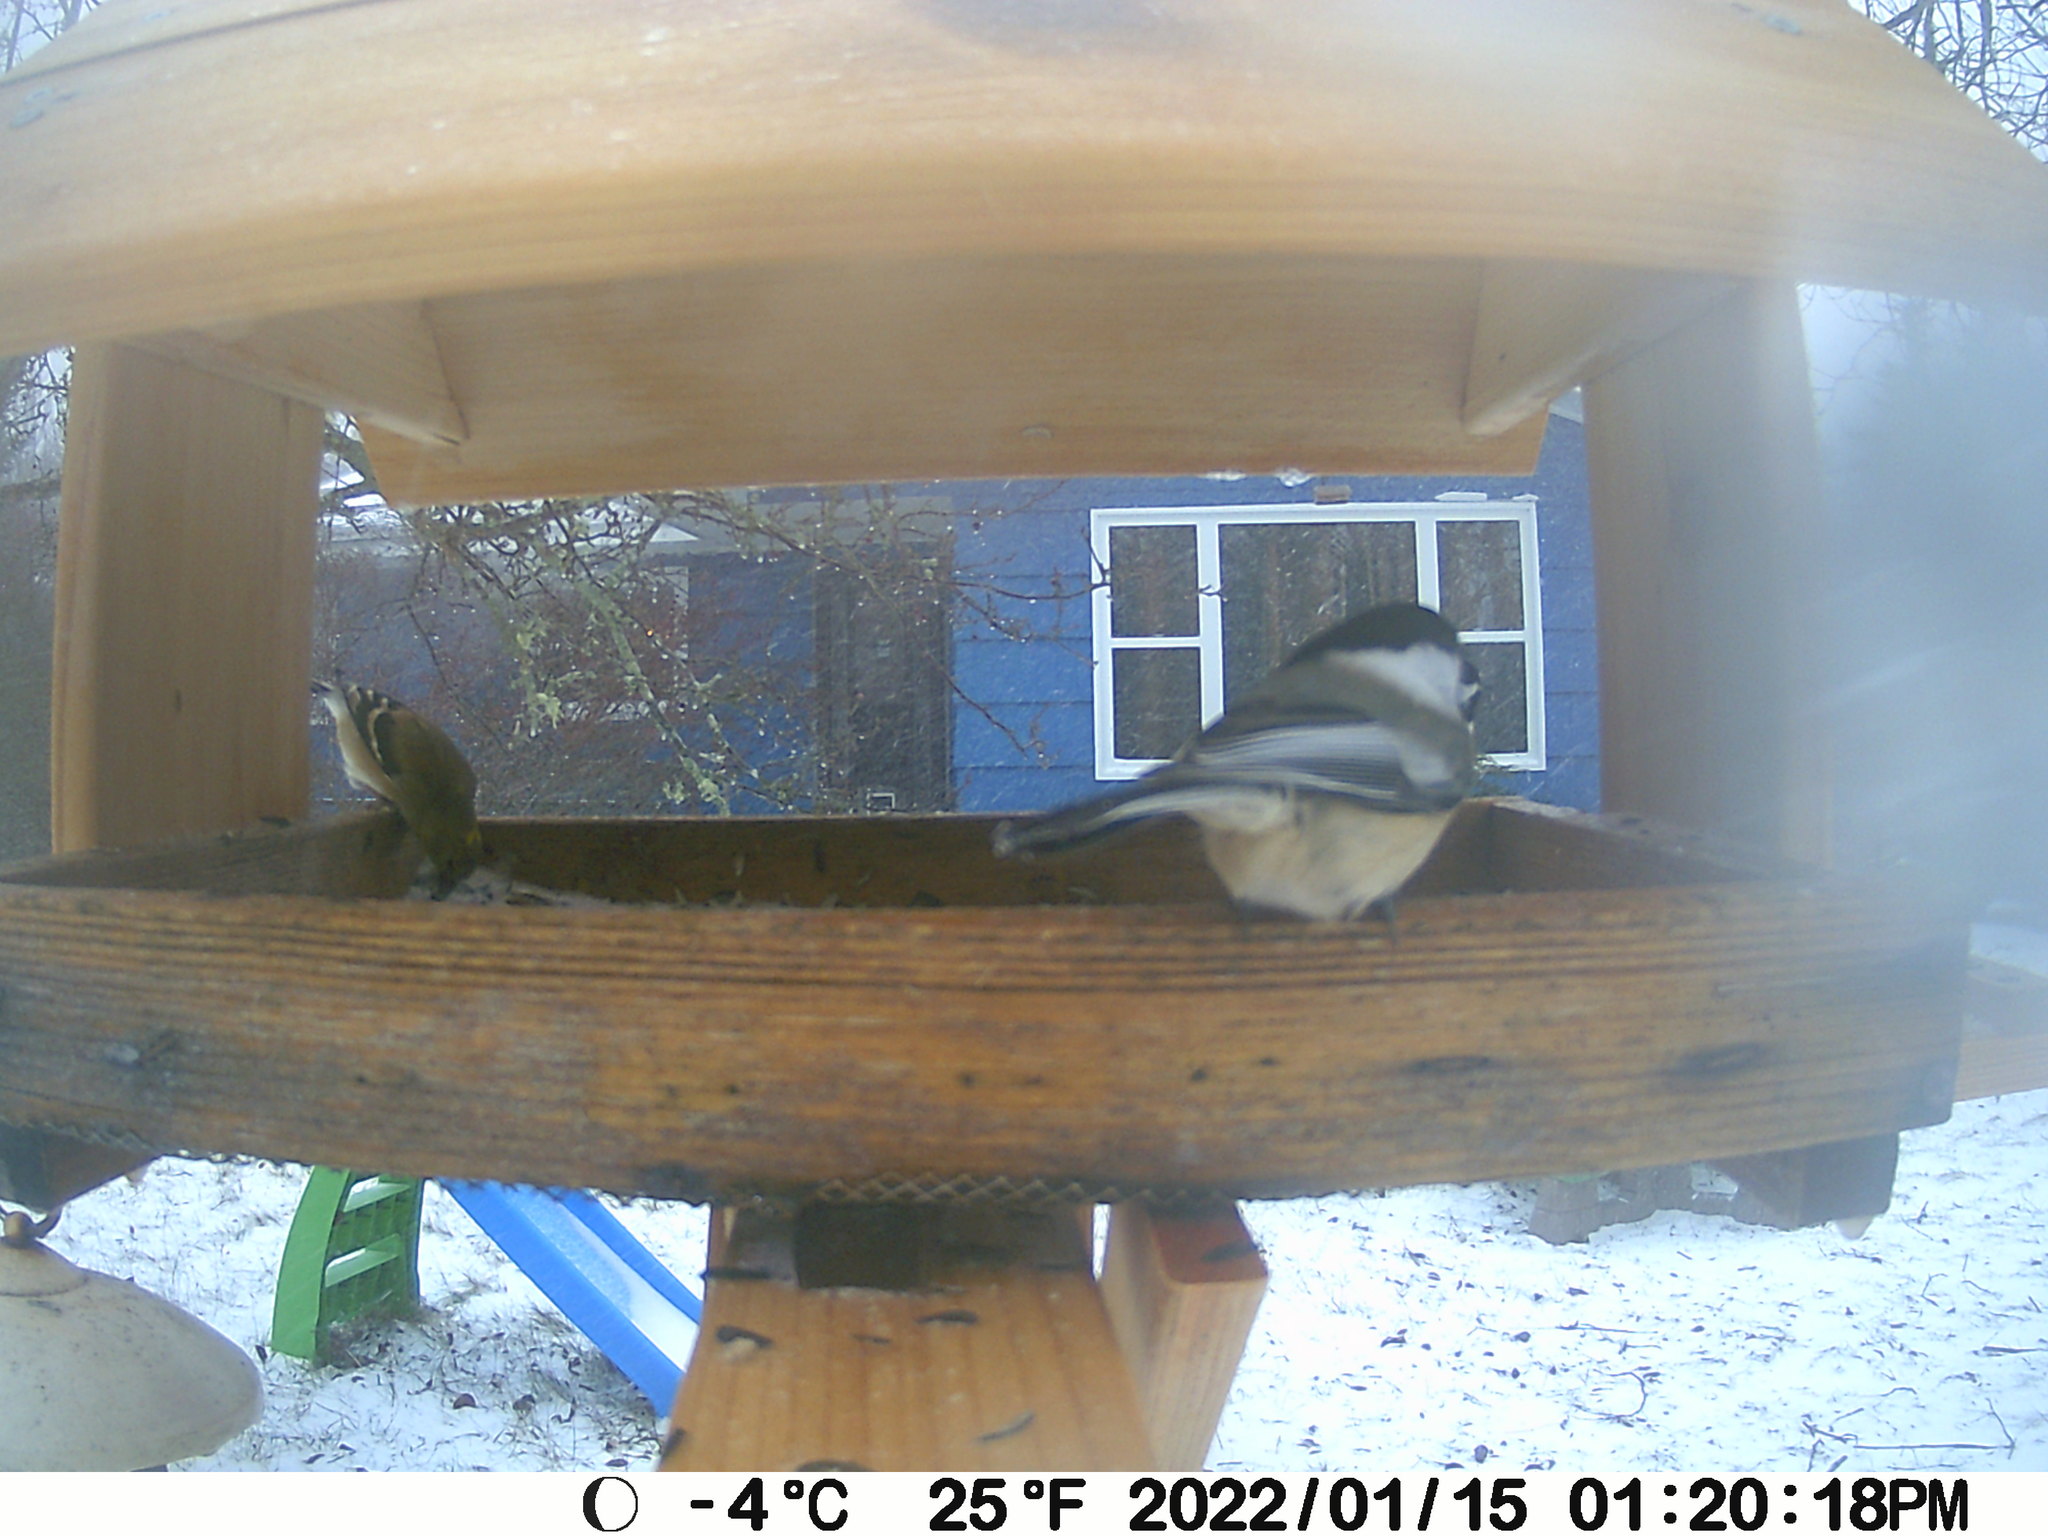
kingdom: Animalia
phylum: Chordata
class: Aves
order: Passeriformes
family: Fringillidae
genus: Spinus
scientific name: Spinus tristis
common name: American goldfinch
